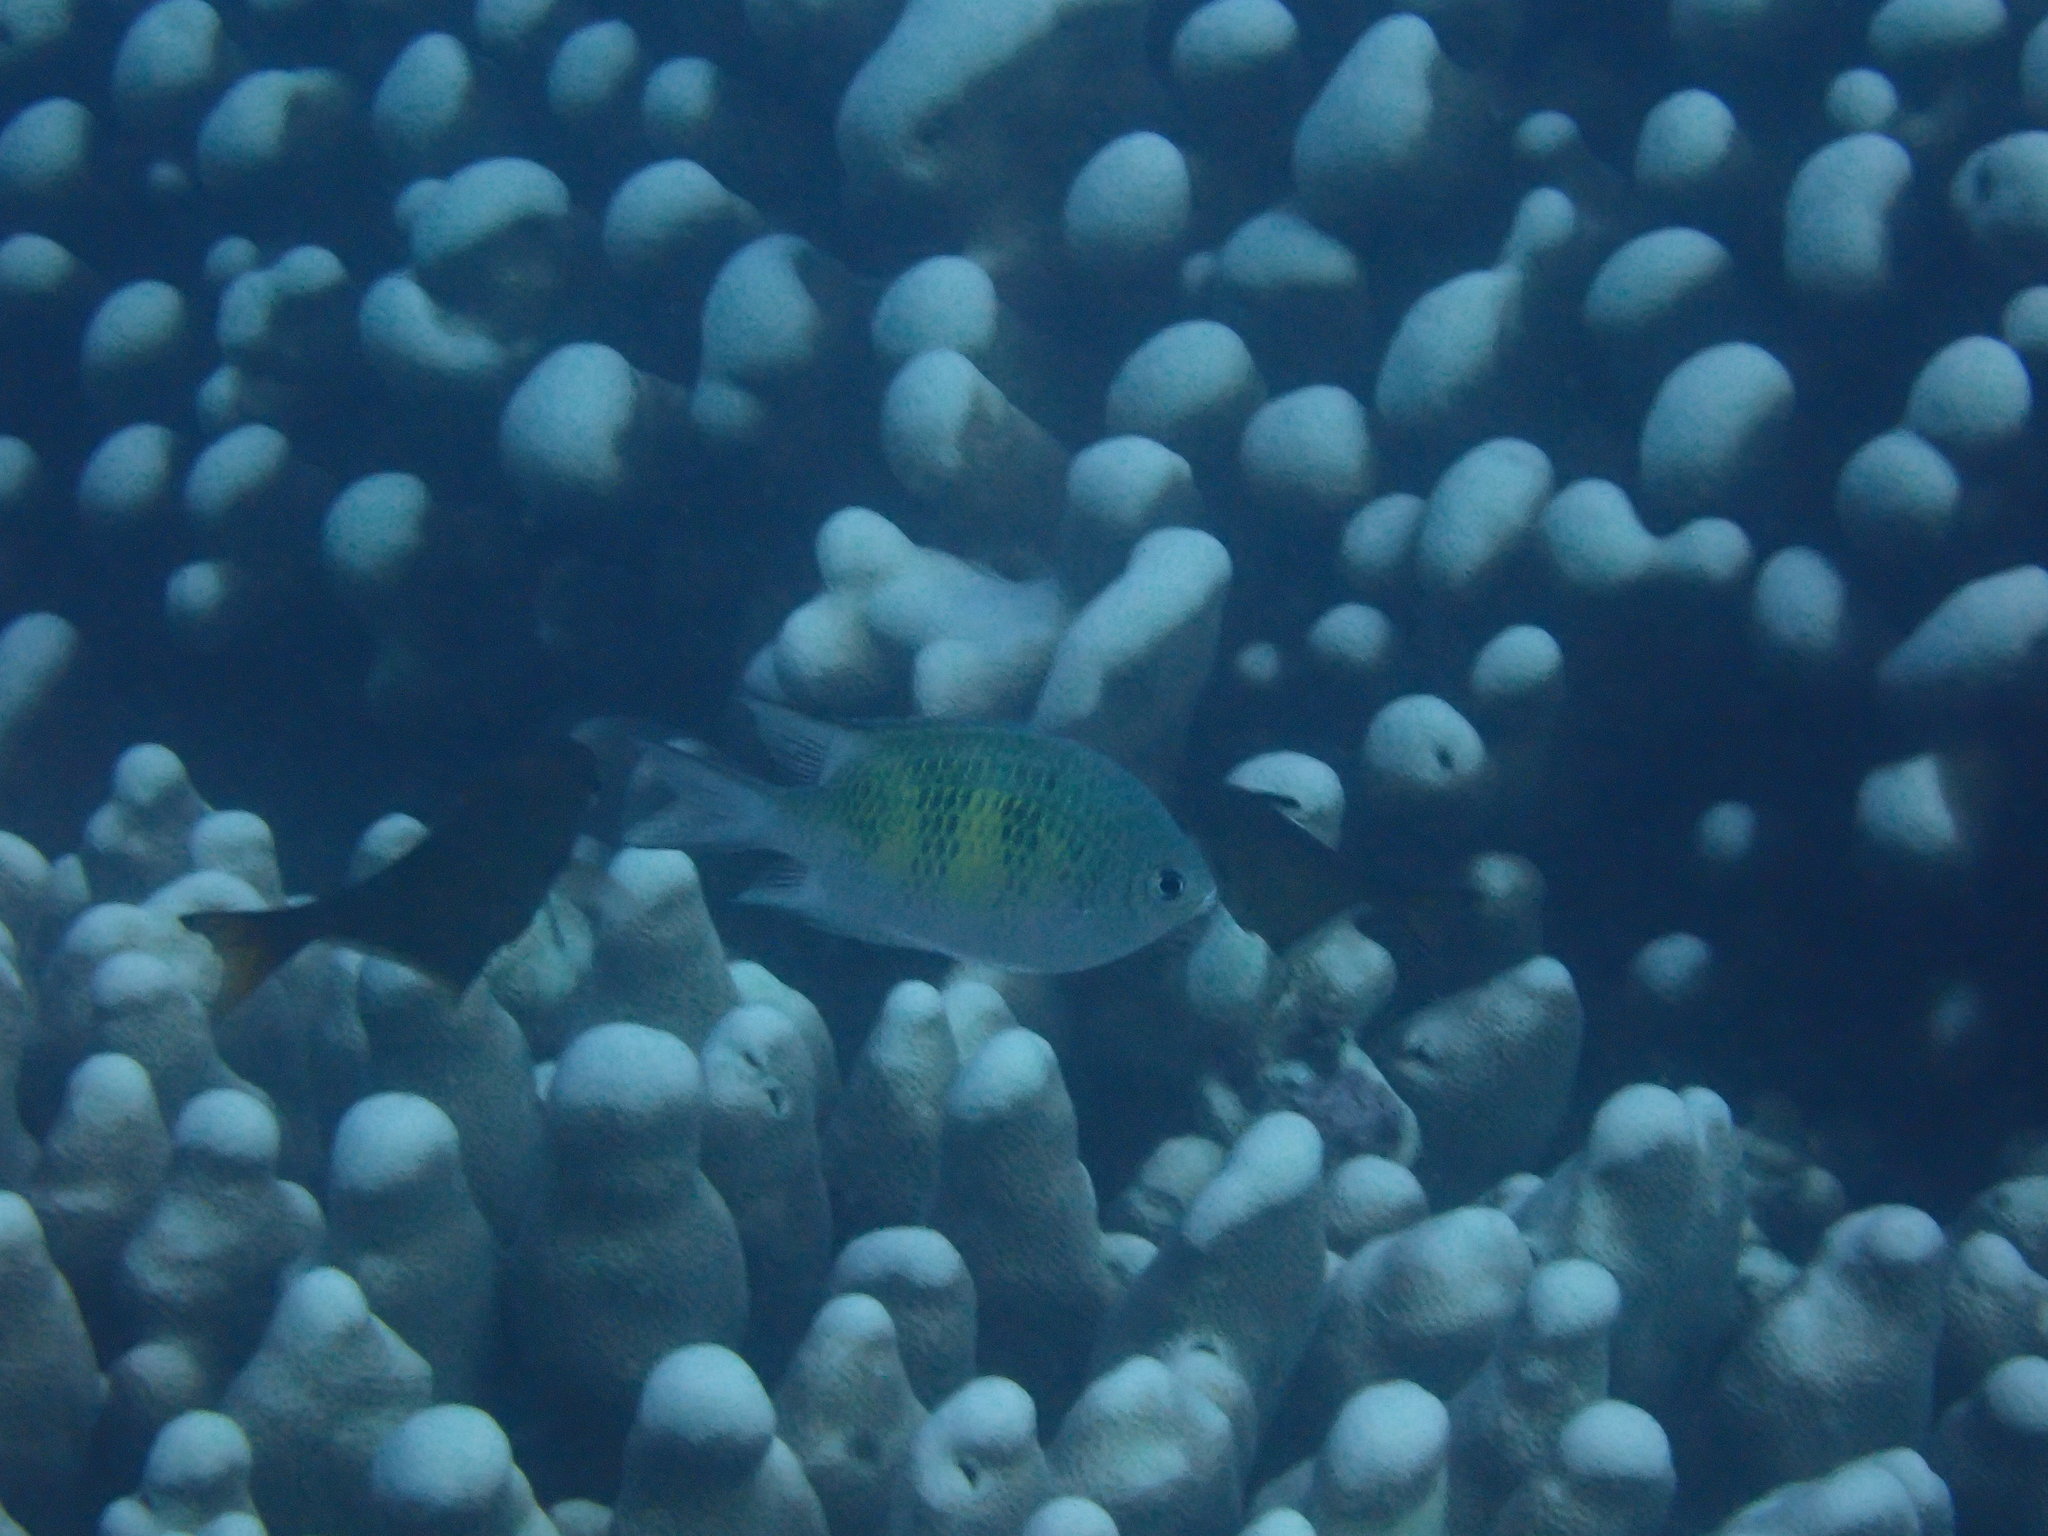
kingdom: Animalia
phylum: Chordata
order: Perciformes
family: Pomacentridae
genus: Amblyglyphidodon
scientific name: Amblyglyphidodon curacao
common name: Staghorn damsel
